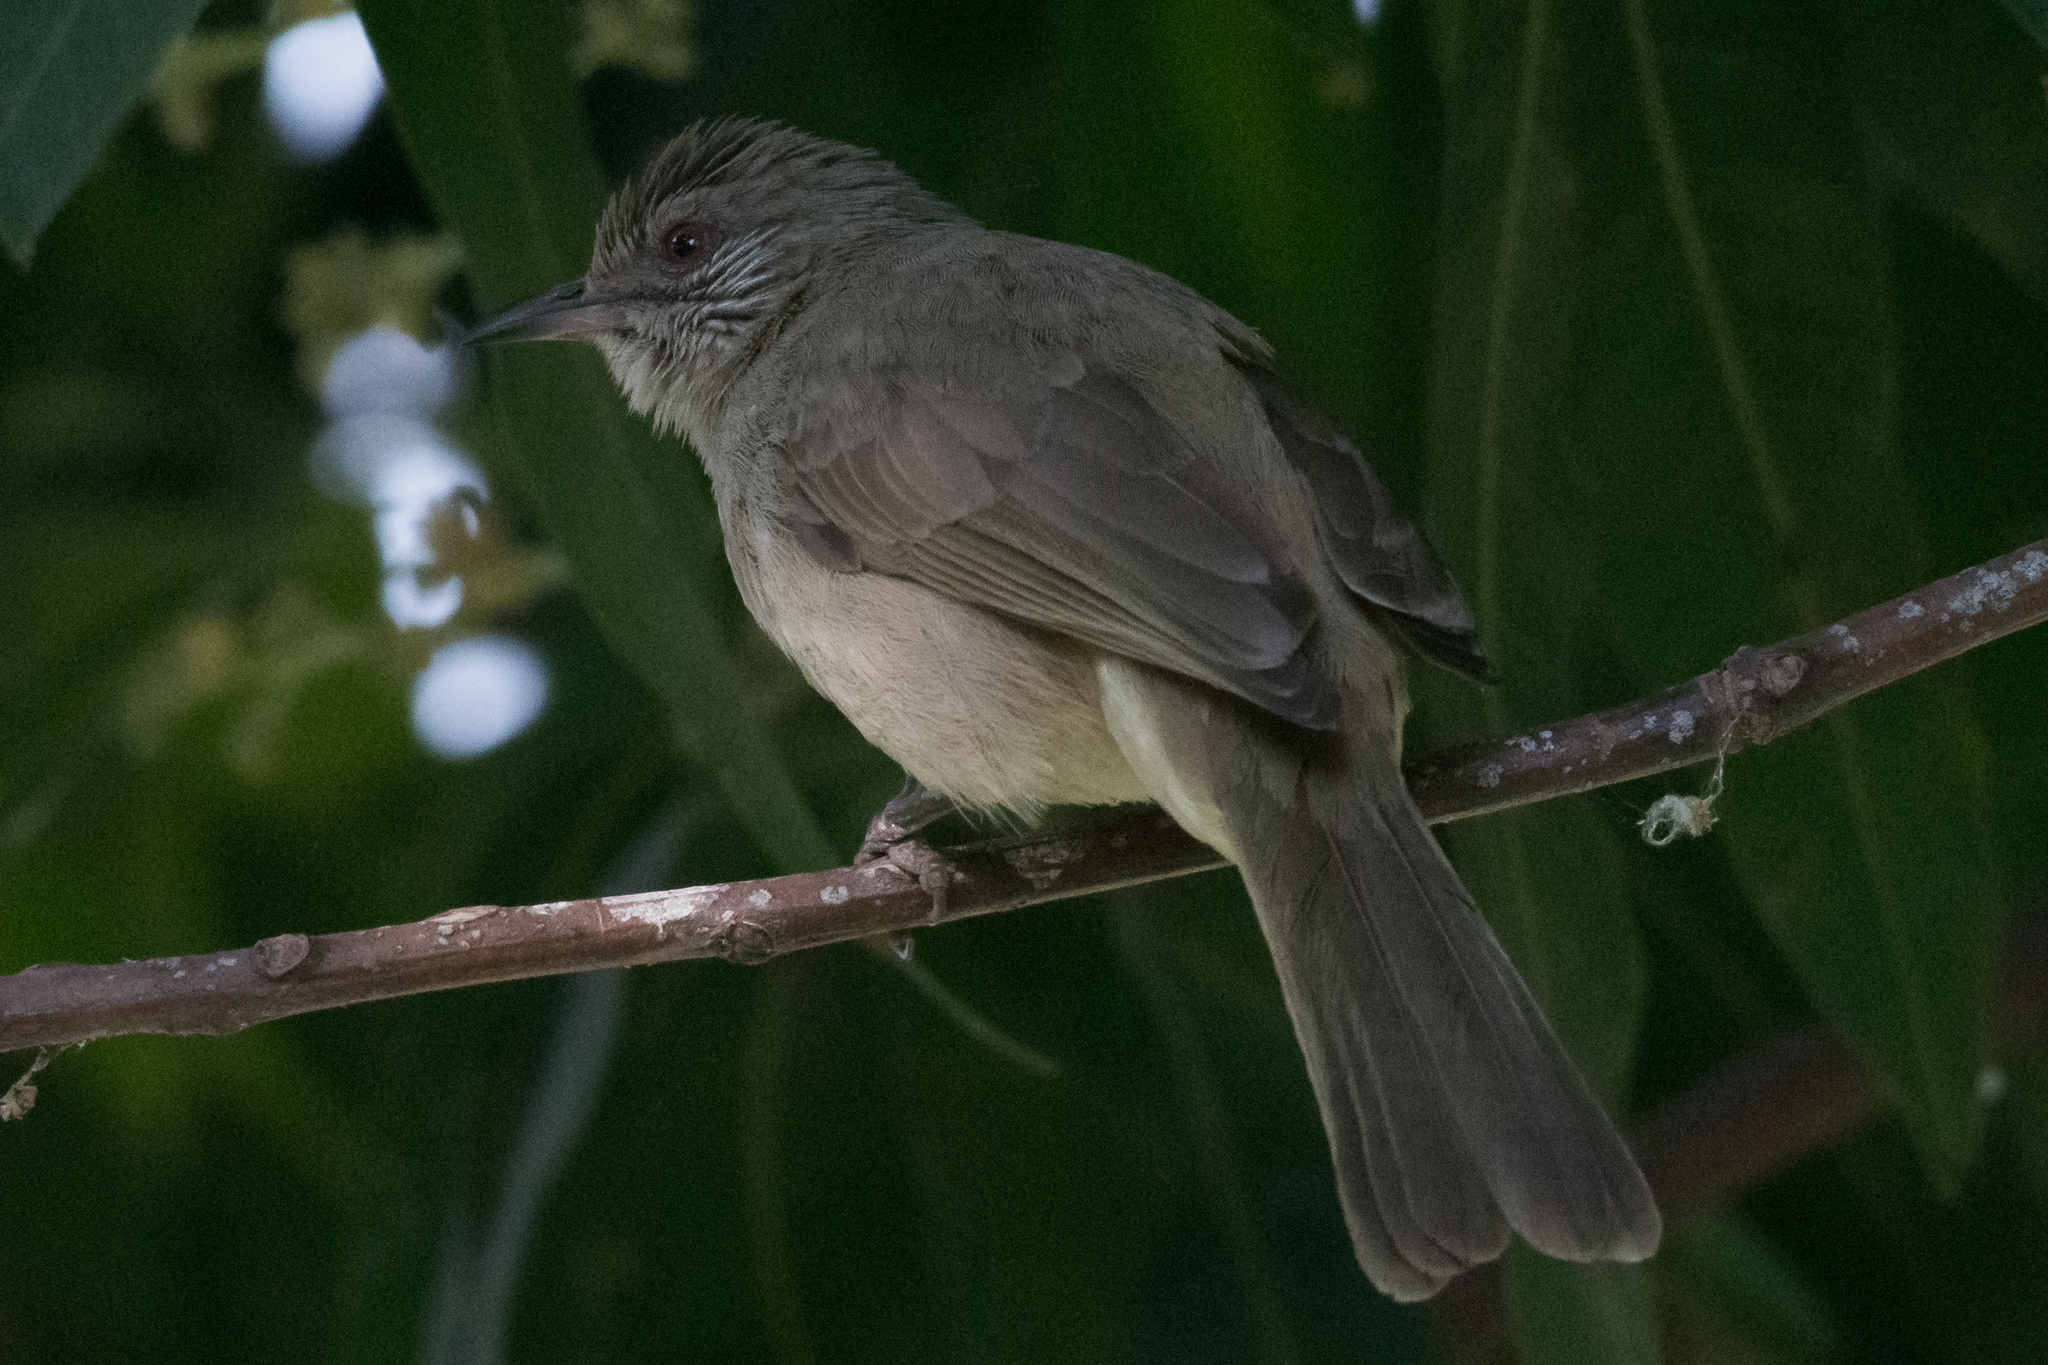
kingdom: Animalia
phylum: Chordata
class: Aves
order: Passeriformes
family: Pycnonotidae
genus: Pycnonotus
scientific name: Pycnonotus blanfordi
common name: Streak-eared bulbul
